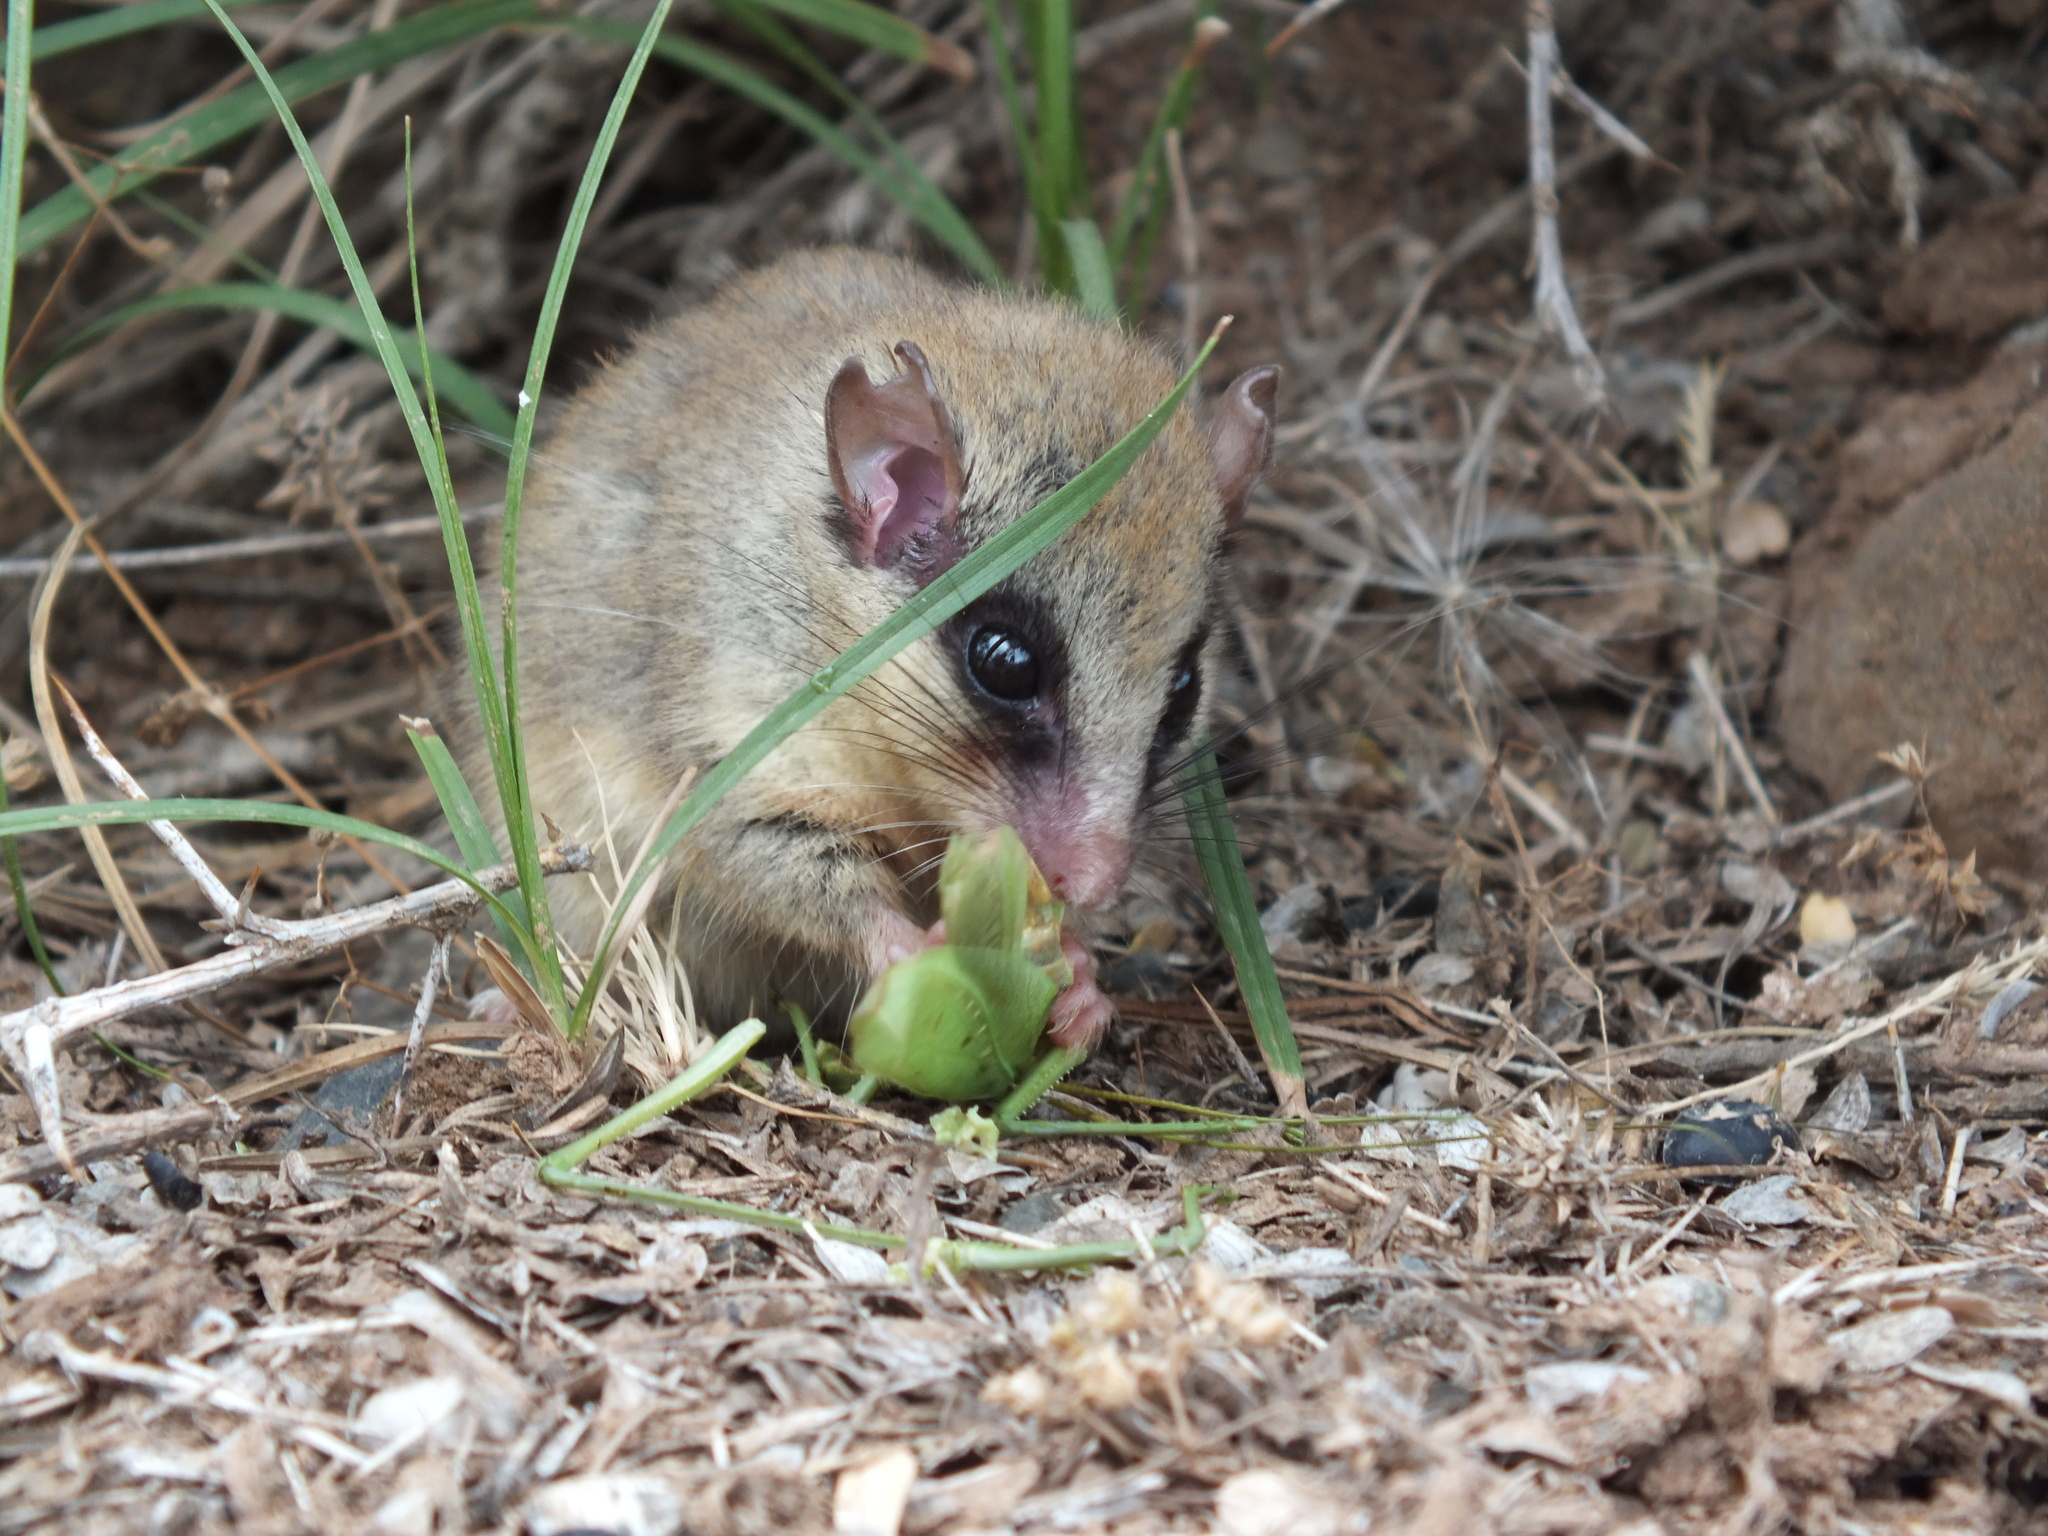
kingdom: Animalia
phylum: Chordata
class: Mammalia
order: Rodentia
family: Gliridae
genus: Dryomys
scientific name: Dryomys nitedula
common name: Forest dormouse
